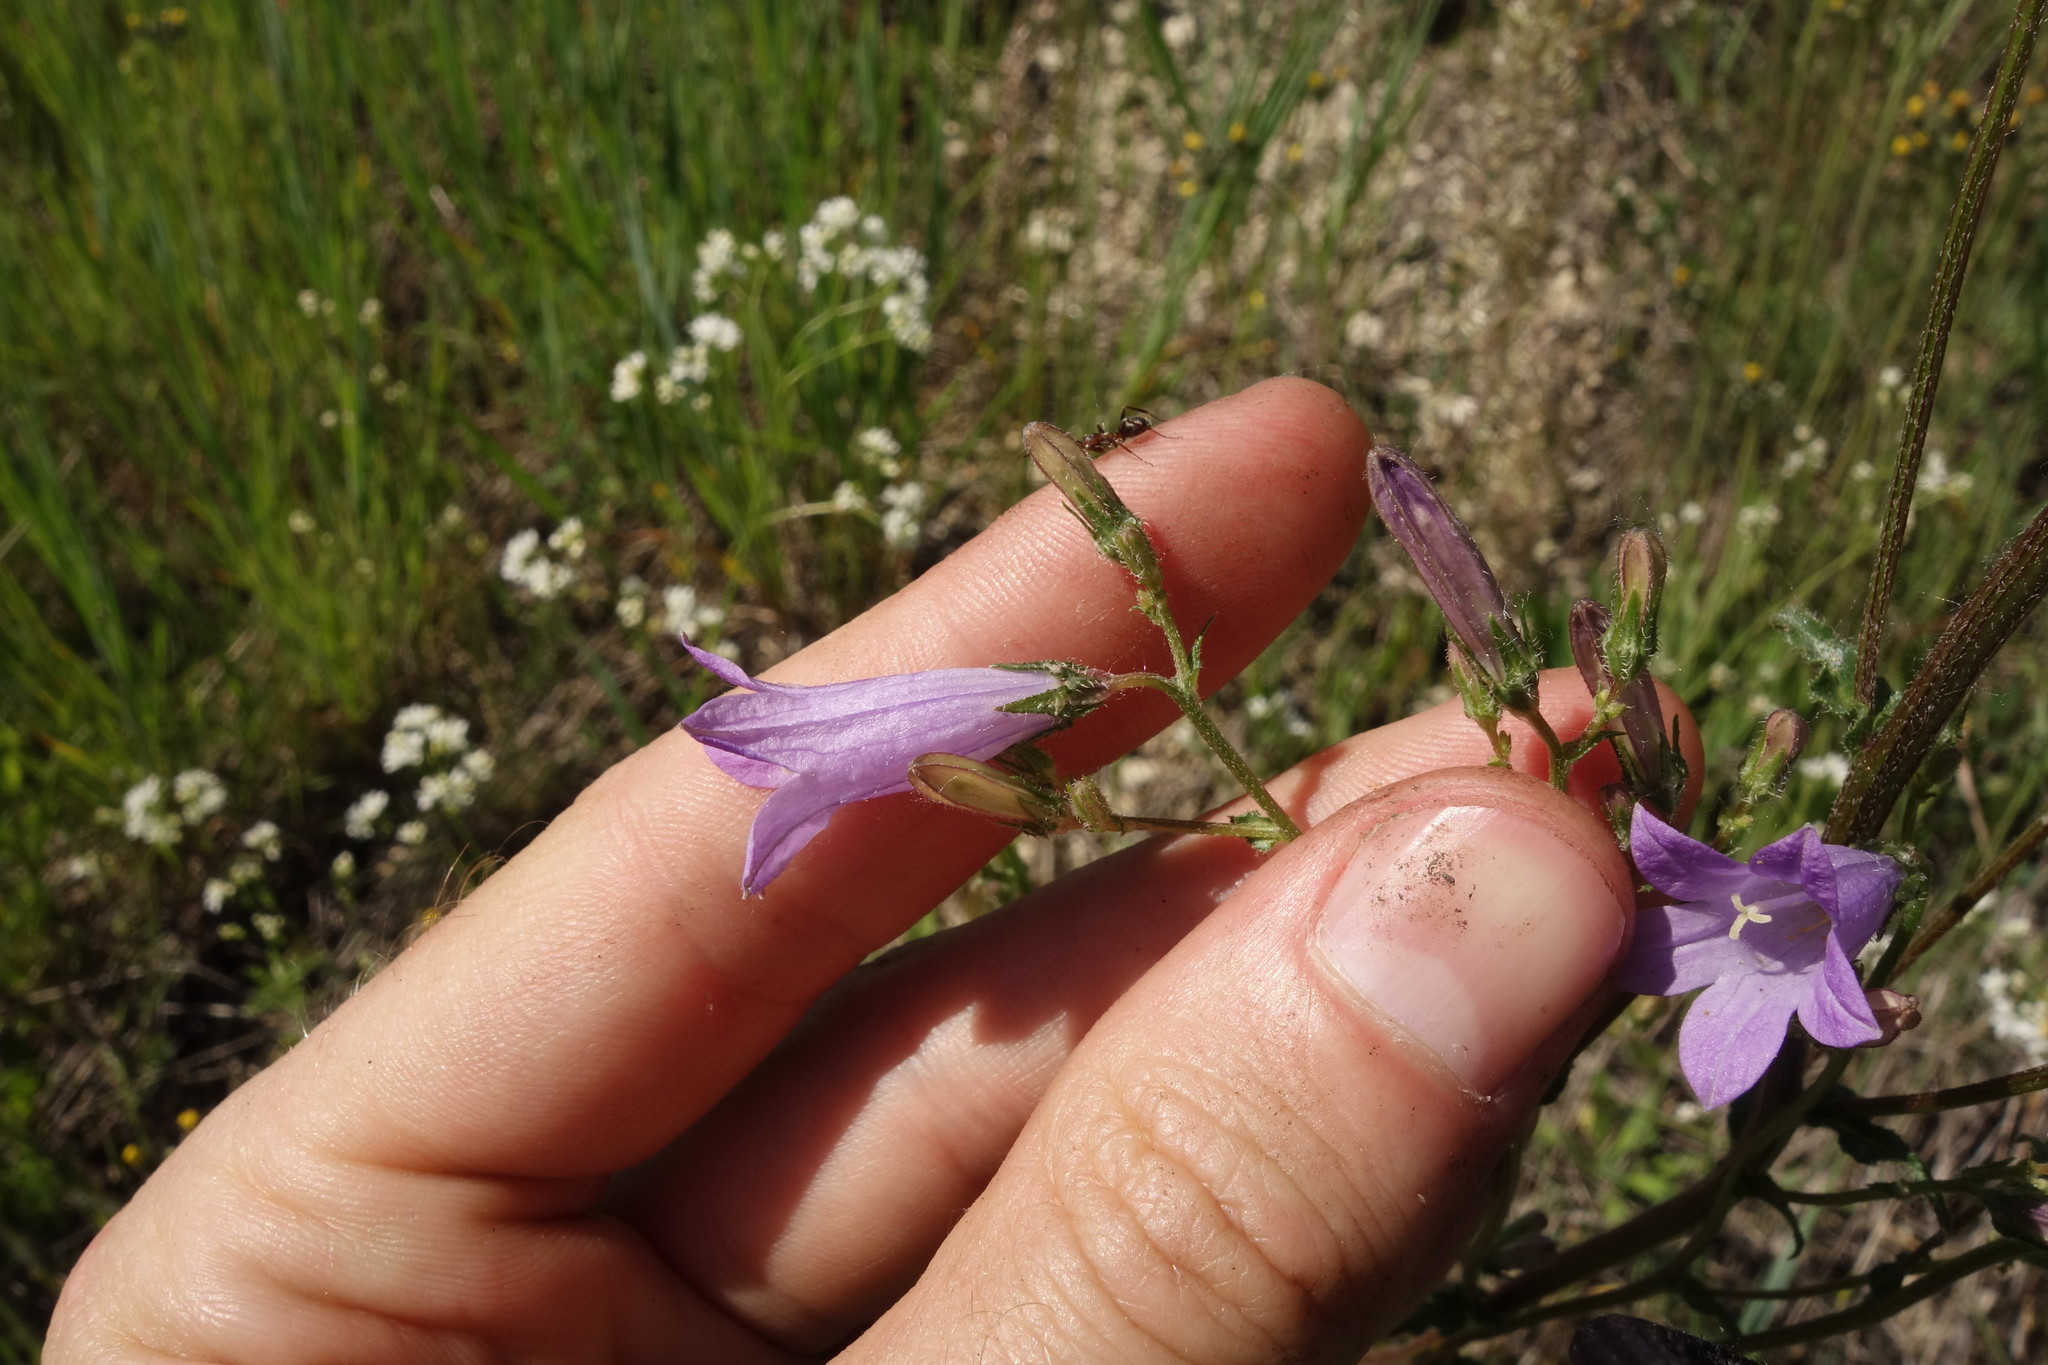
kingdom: Plantae
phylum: Tracheophyta
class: Magnoliopsida
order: Asterales
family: Campanulaceae
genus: Campanula
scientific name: Campanula sibirica
